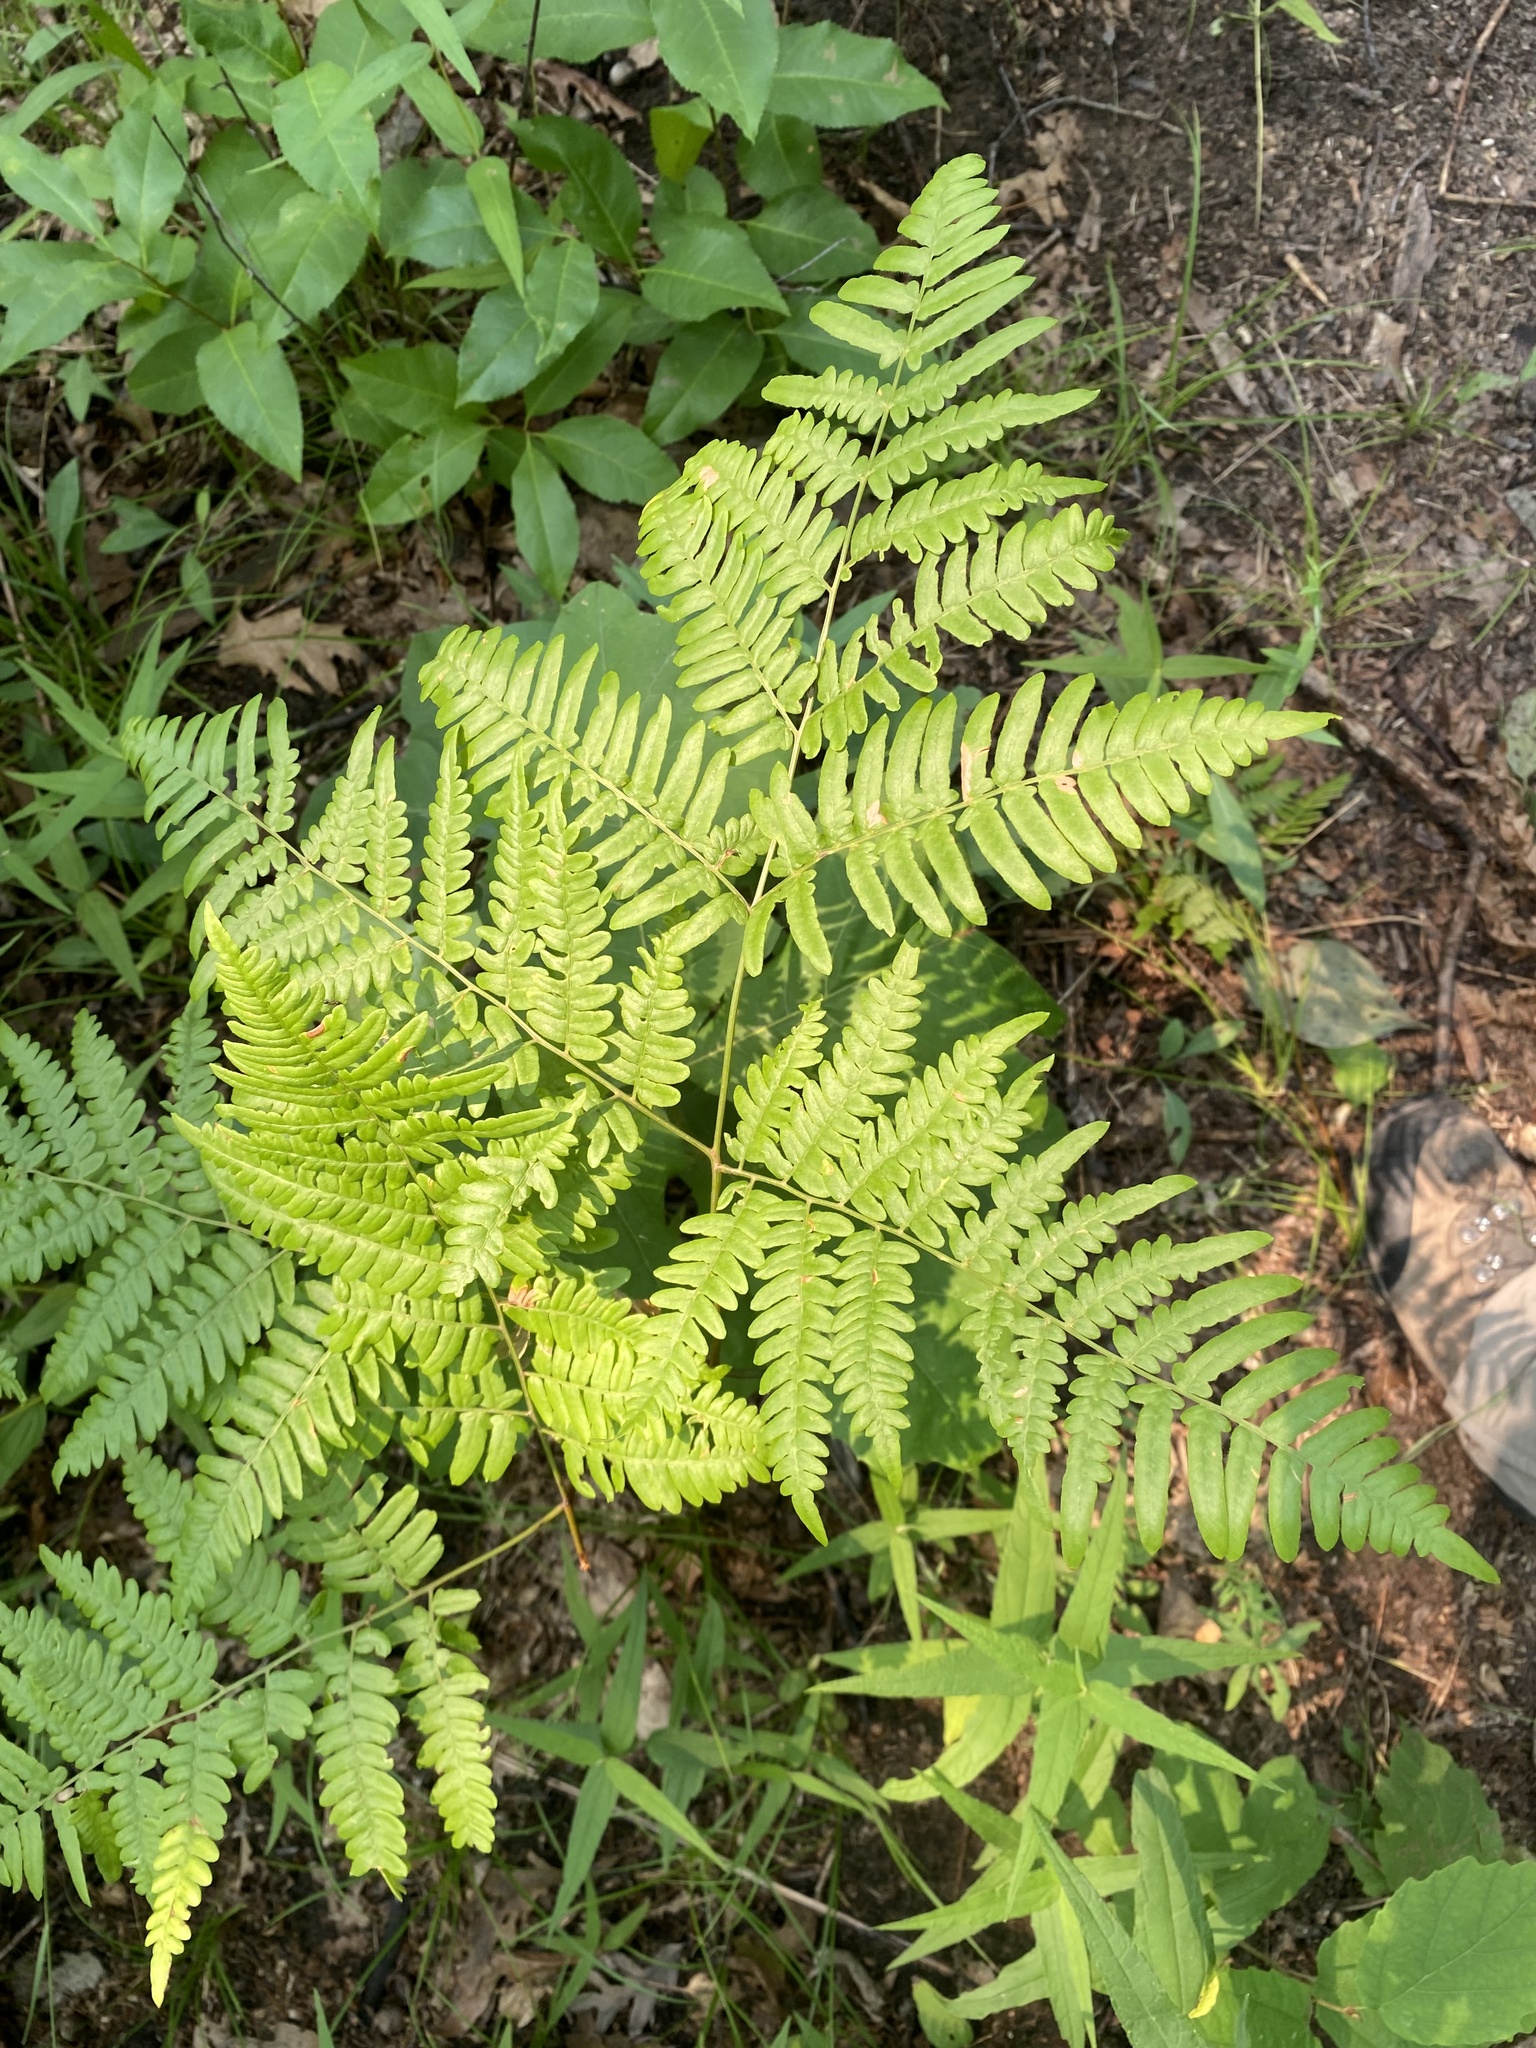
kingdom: Plantae
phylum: Tracheophyta
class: Polypodiopsida
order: Polypodiales
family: Dennstaedtiaceae
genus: Pteridium
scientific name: Pteridium aquilinum
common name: Bracken
